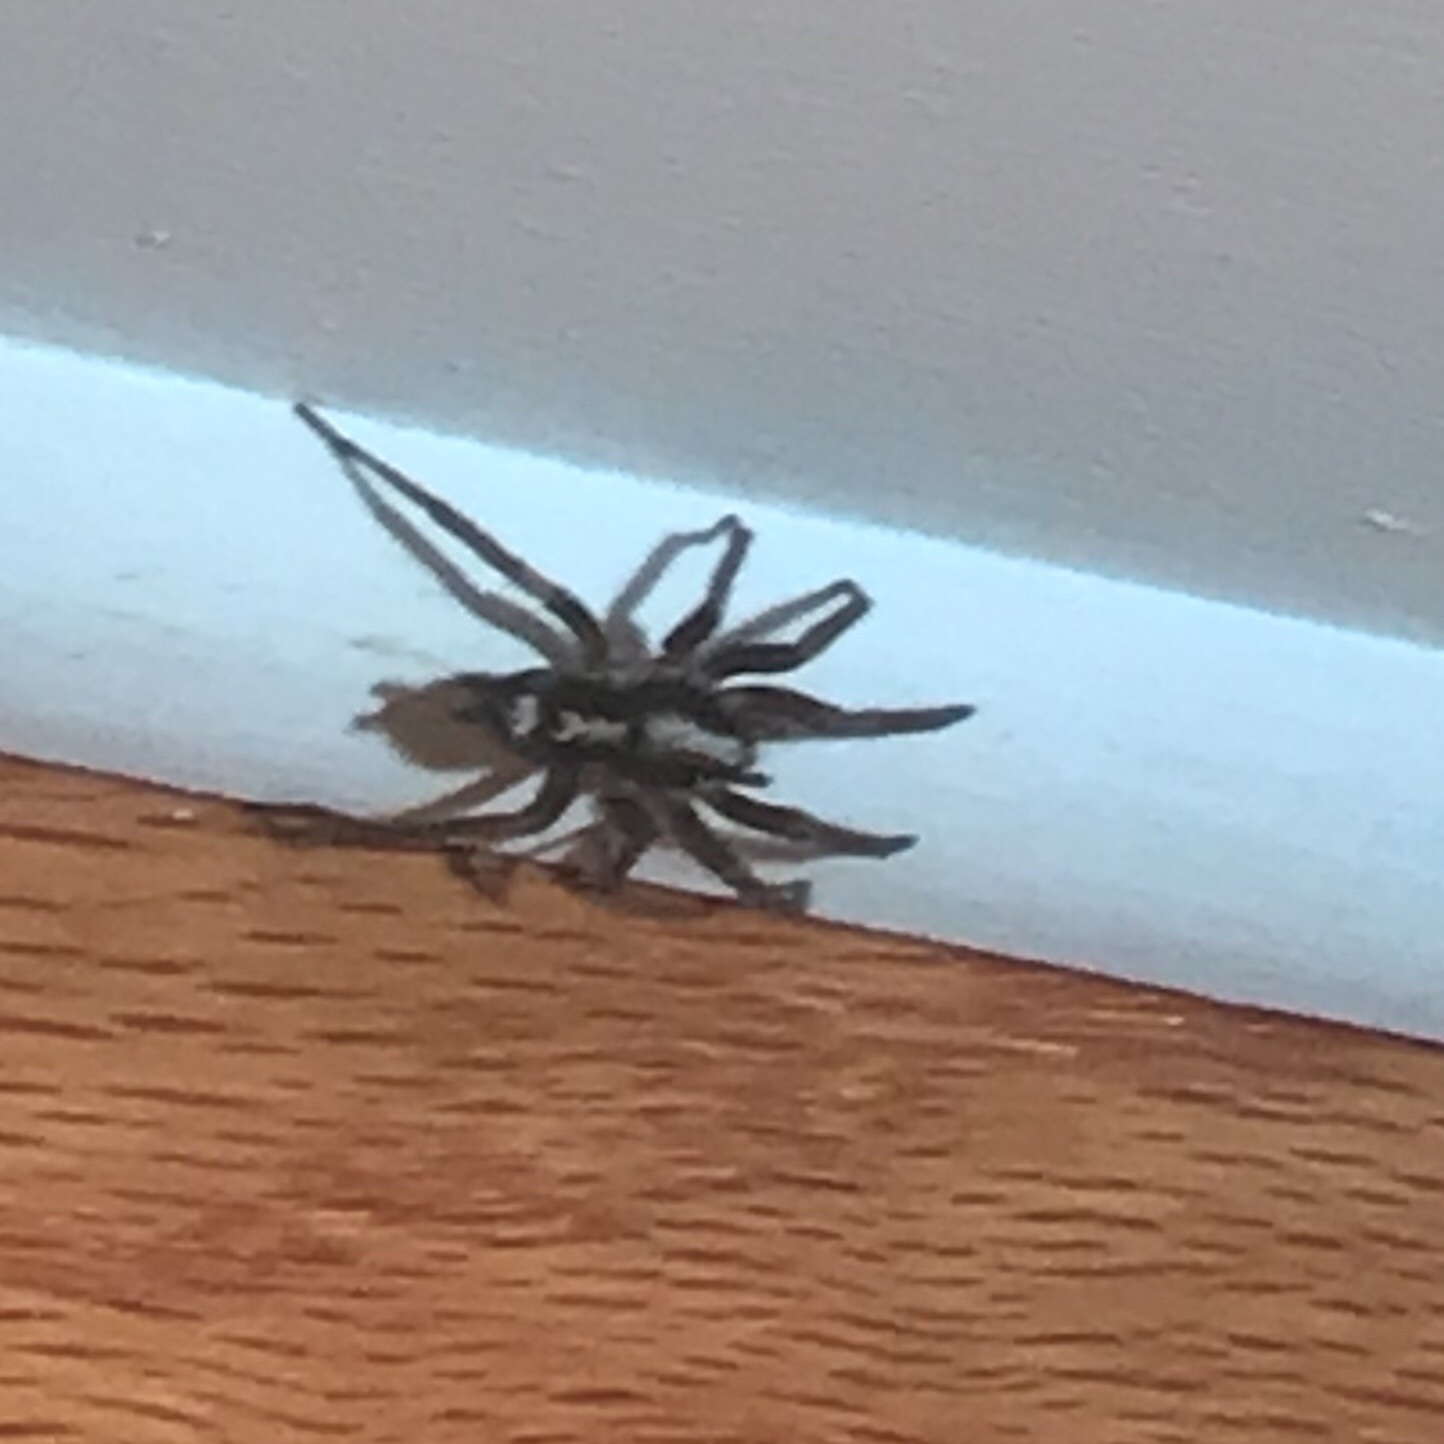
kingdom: Animalia
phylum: Arthropoda
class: Arachnida
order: Araneae
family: Gnaphosidae
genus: Herpyllus
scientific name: Herpyllus ecclesiasticus
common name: Eastern parson spider
